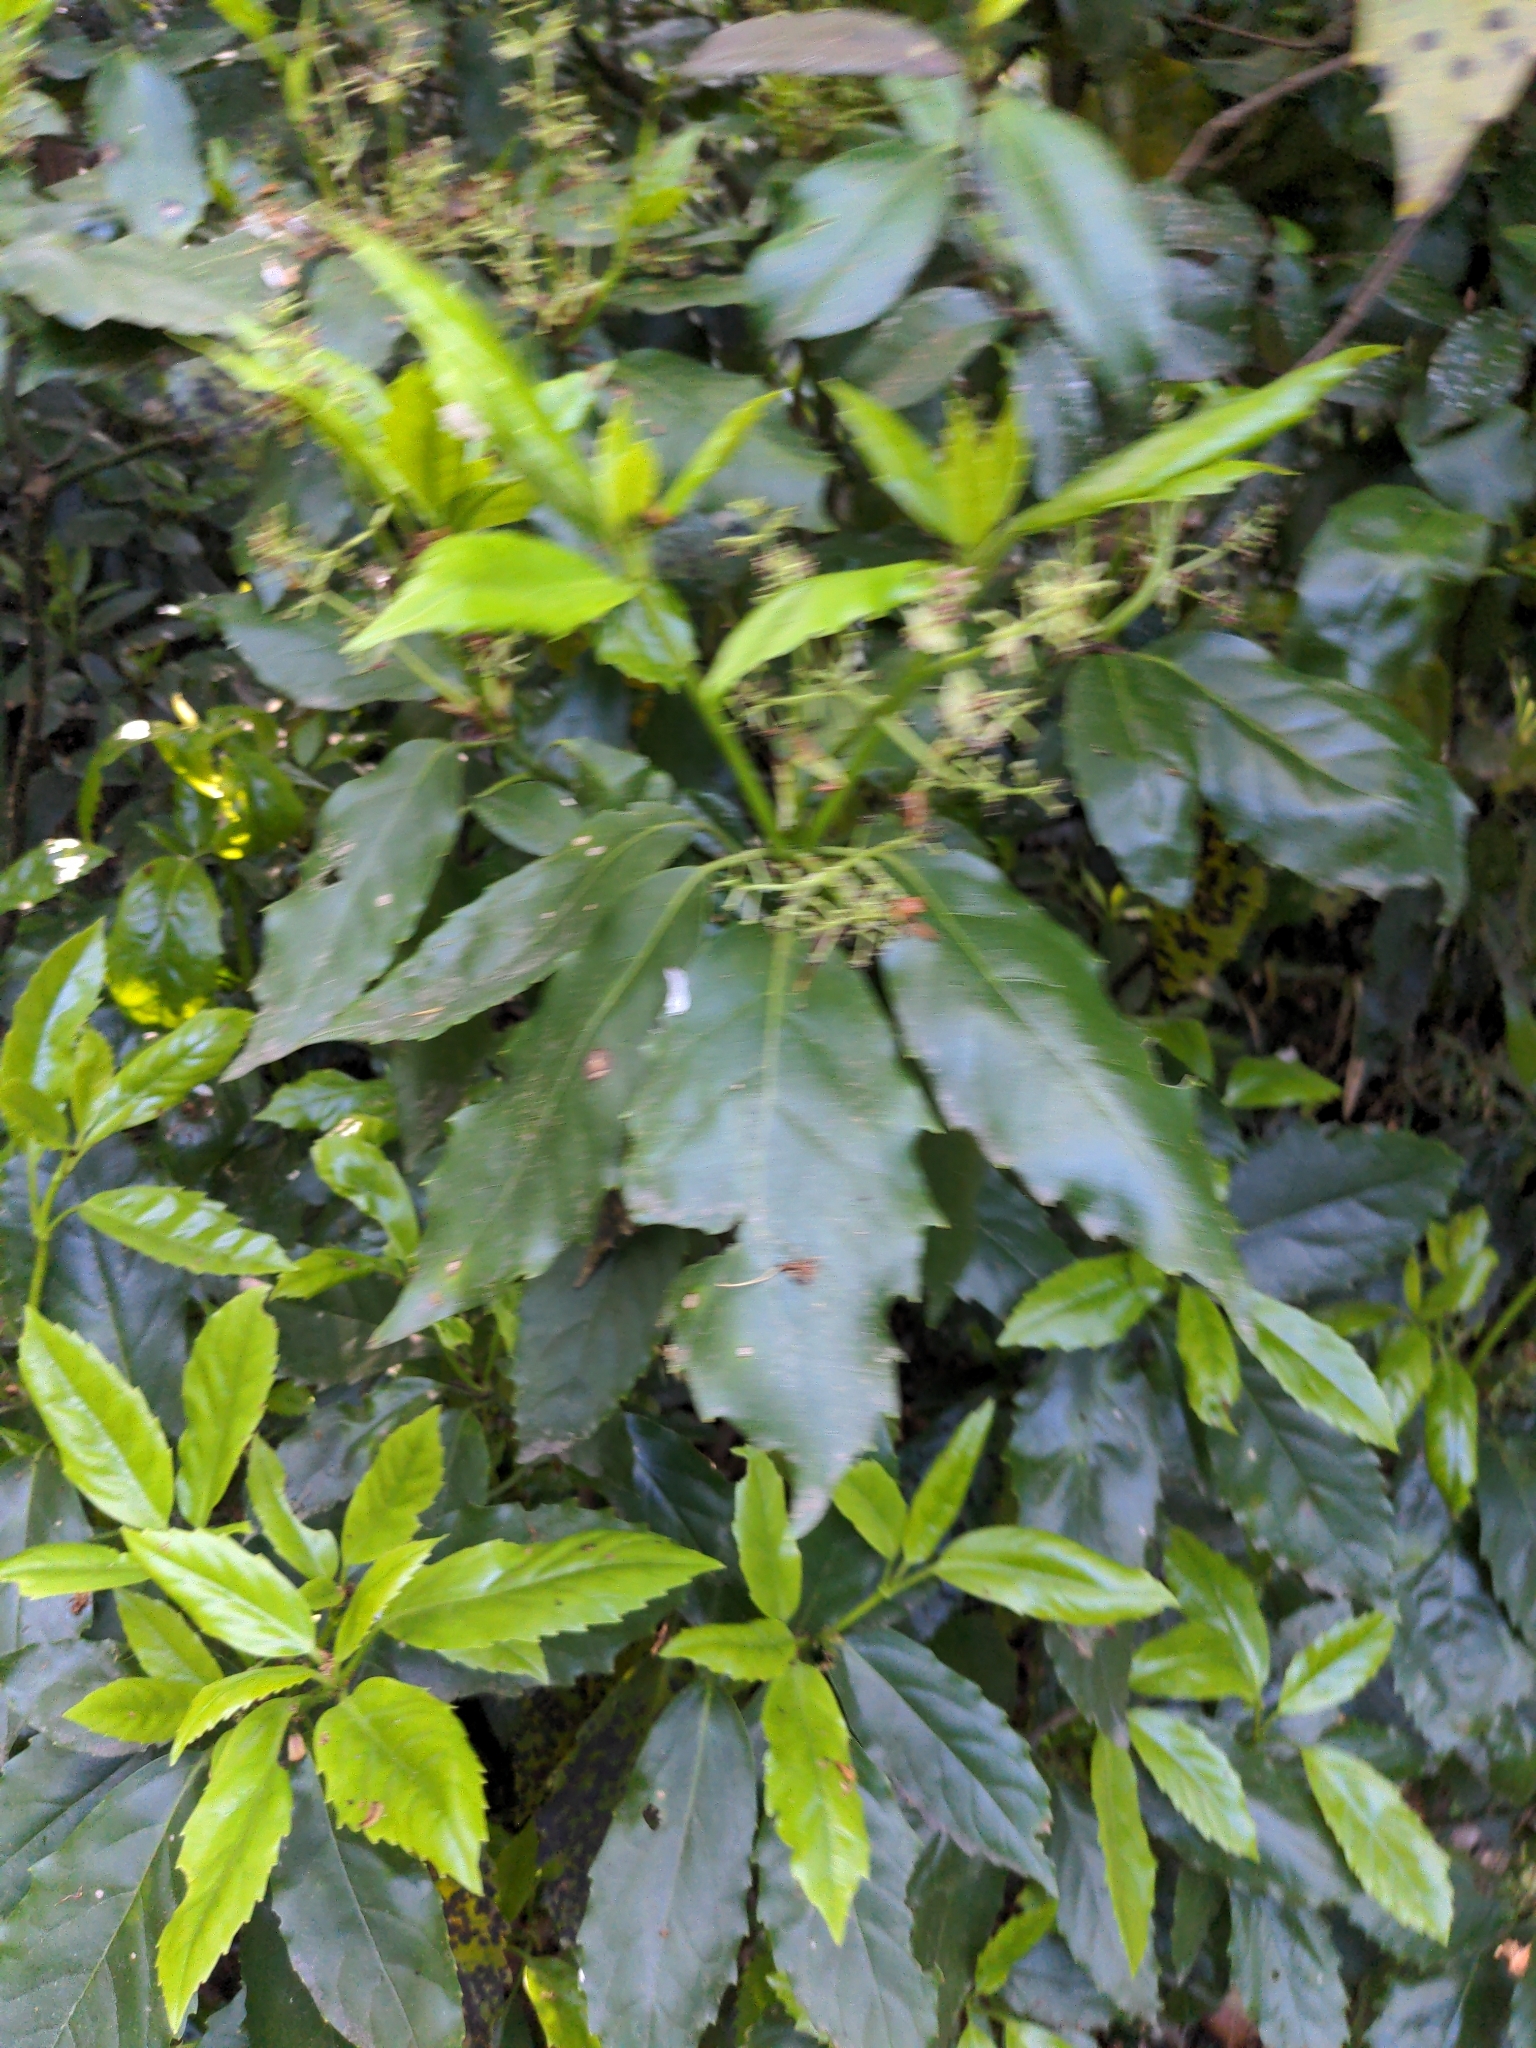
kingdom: Plantae
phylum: Tracheophyta
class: Magnoliopsida
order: Garryales
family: Garryaceae
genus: Aucuba
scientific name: Aucuba japonica
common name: Spotted-laurel
